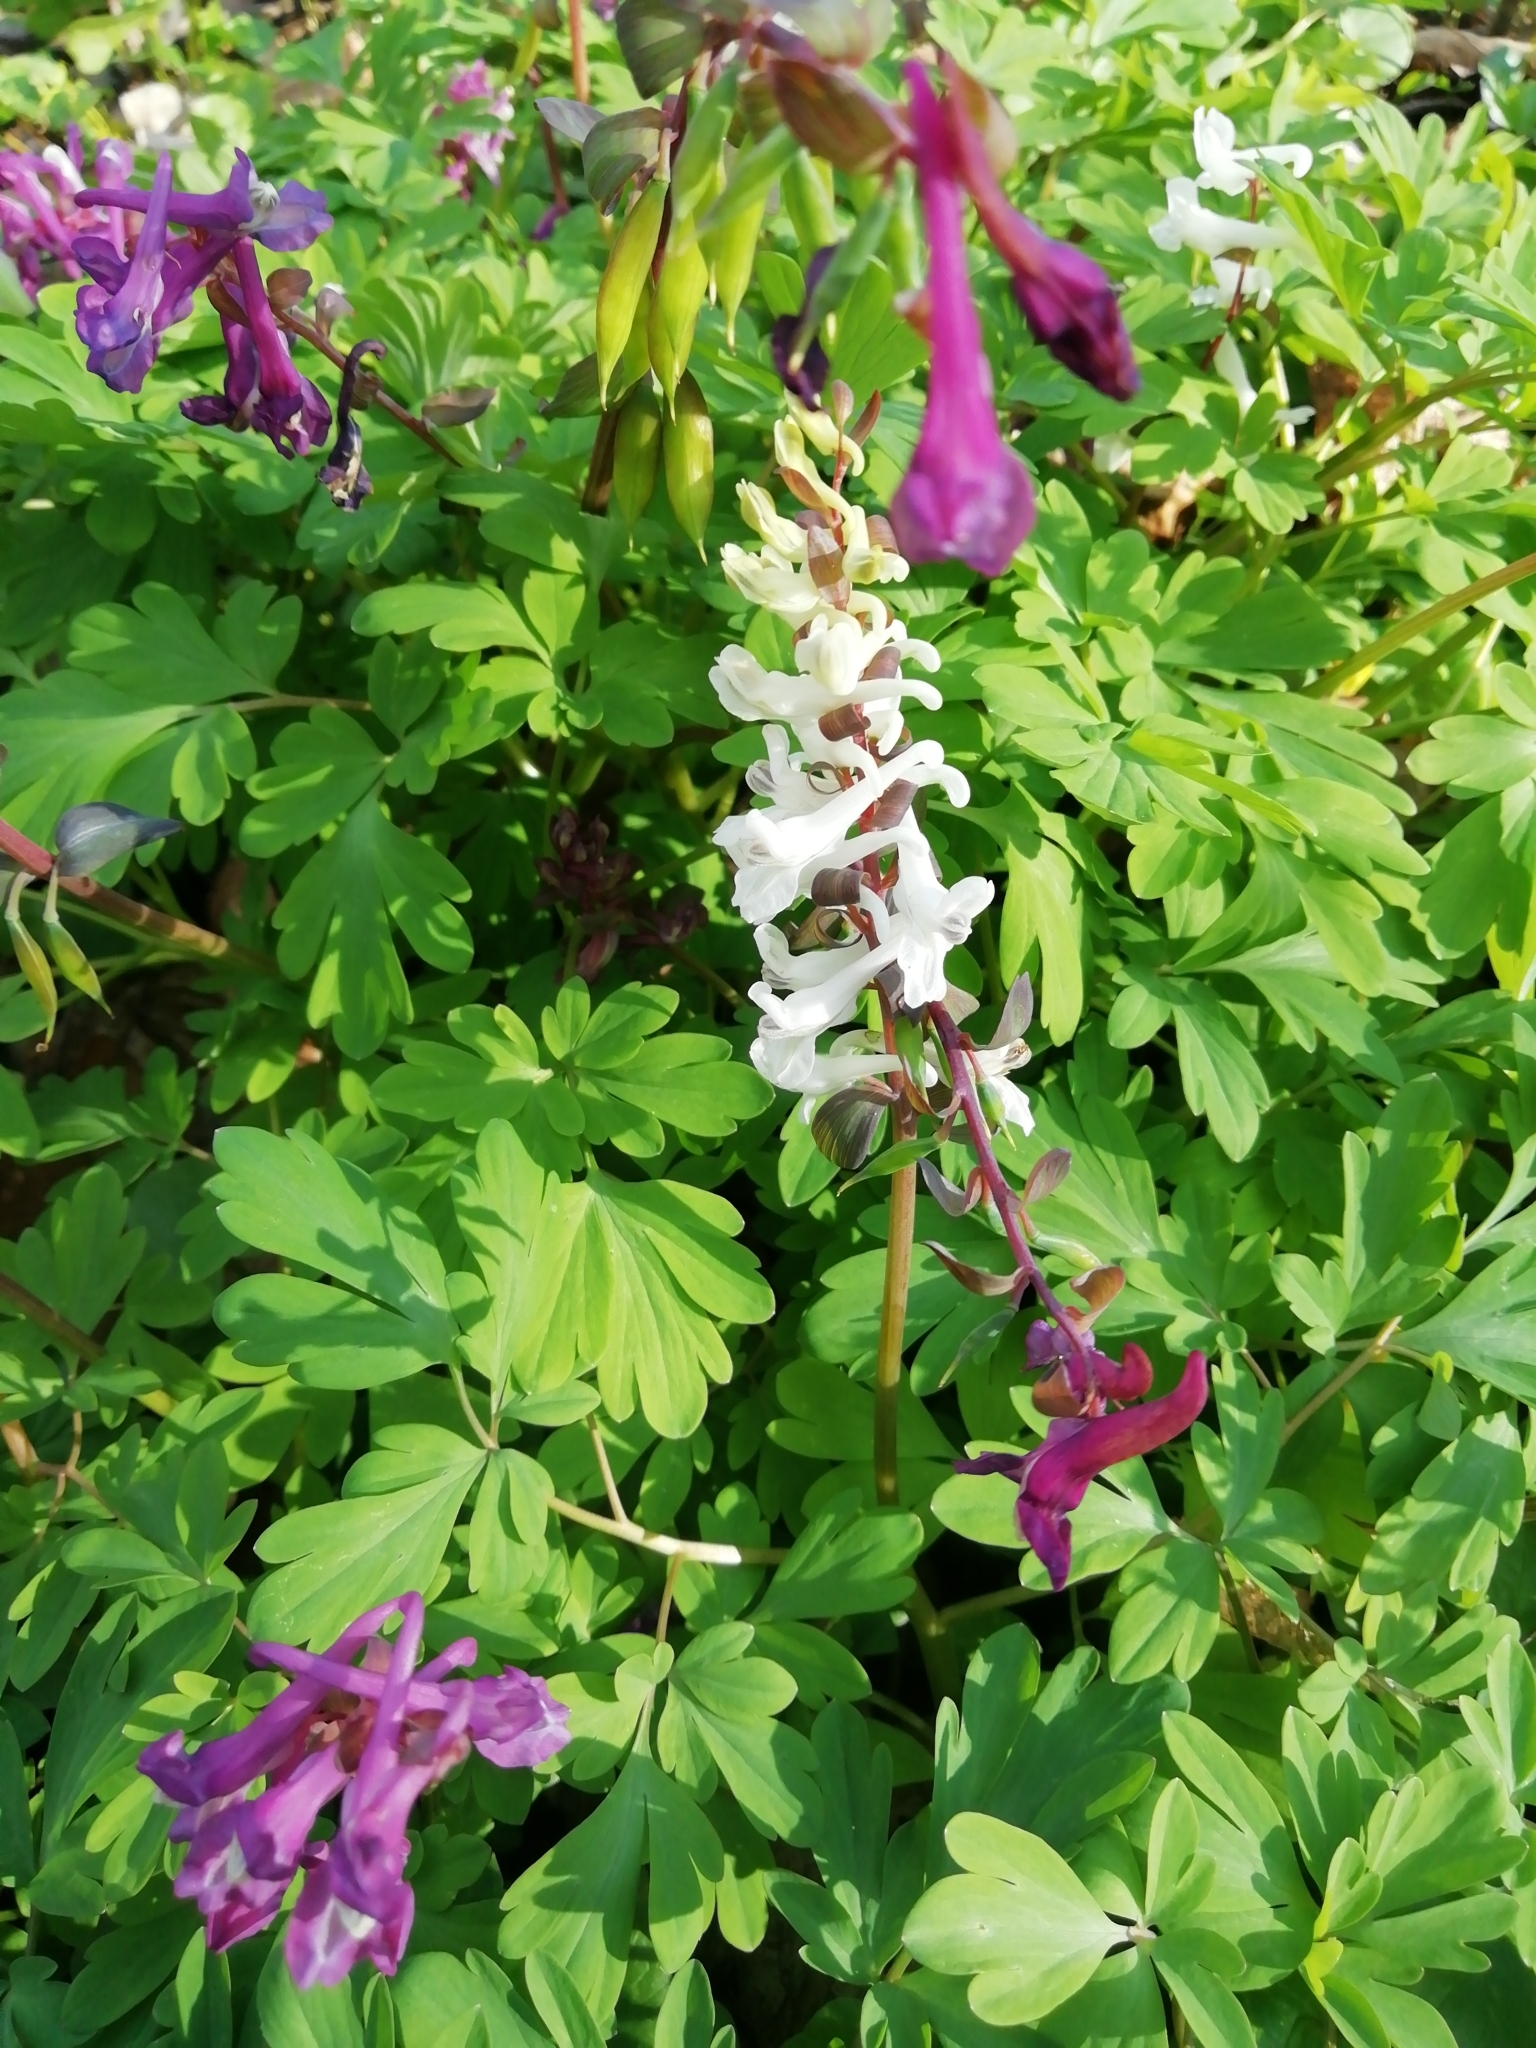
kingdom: Plantae
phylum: Tracheophyta
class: Magnoliopsida
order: Ranunculales
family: Papaveraceae
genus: Corydalis
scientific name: Corydalis cava
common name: Hollowroot
